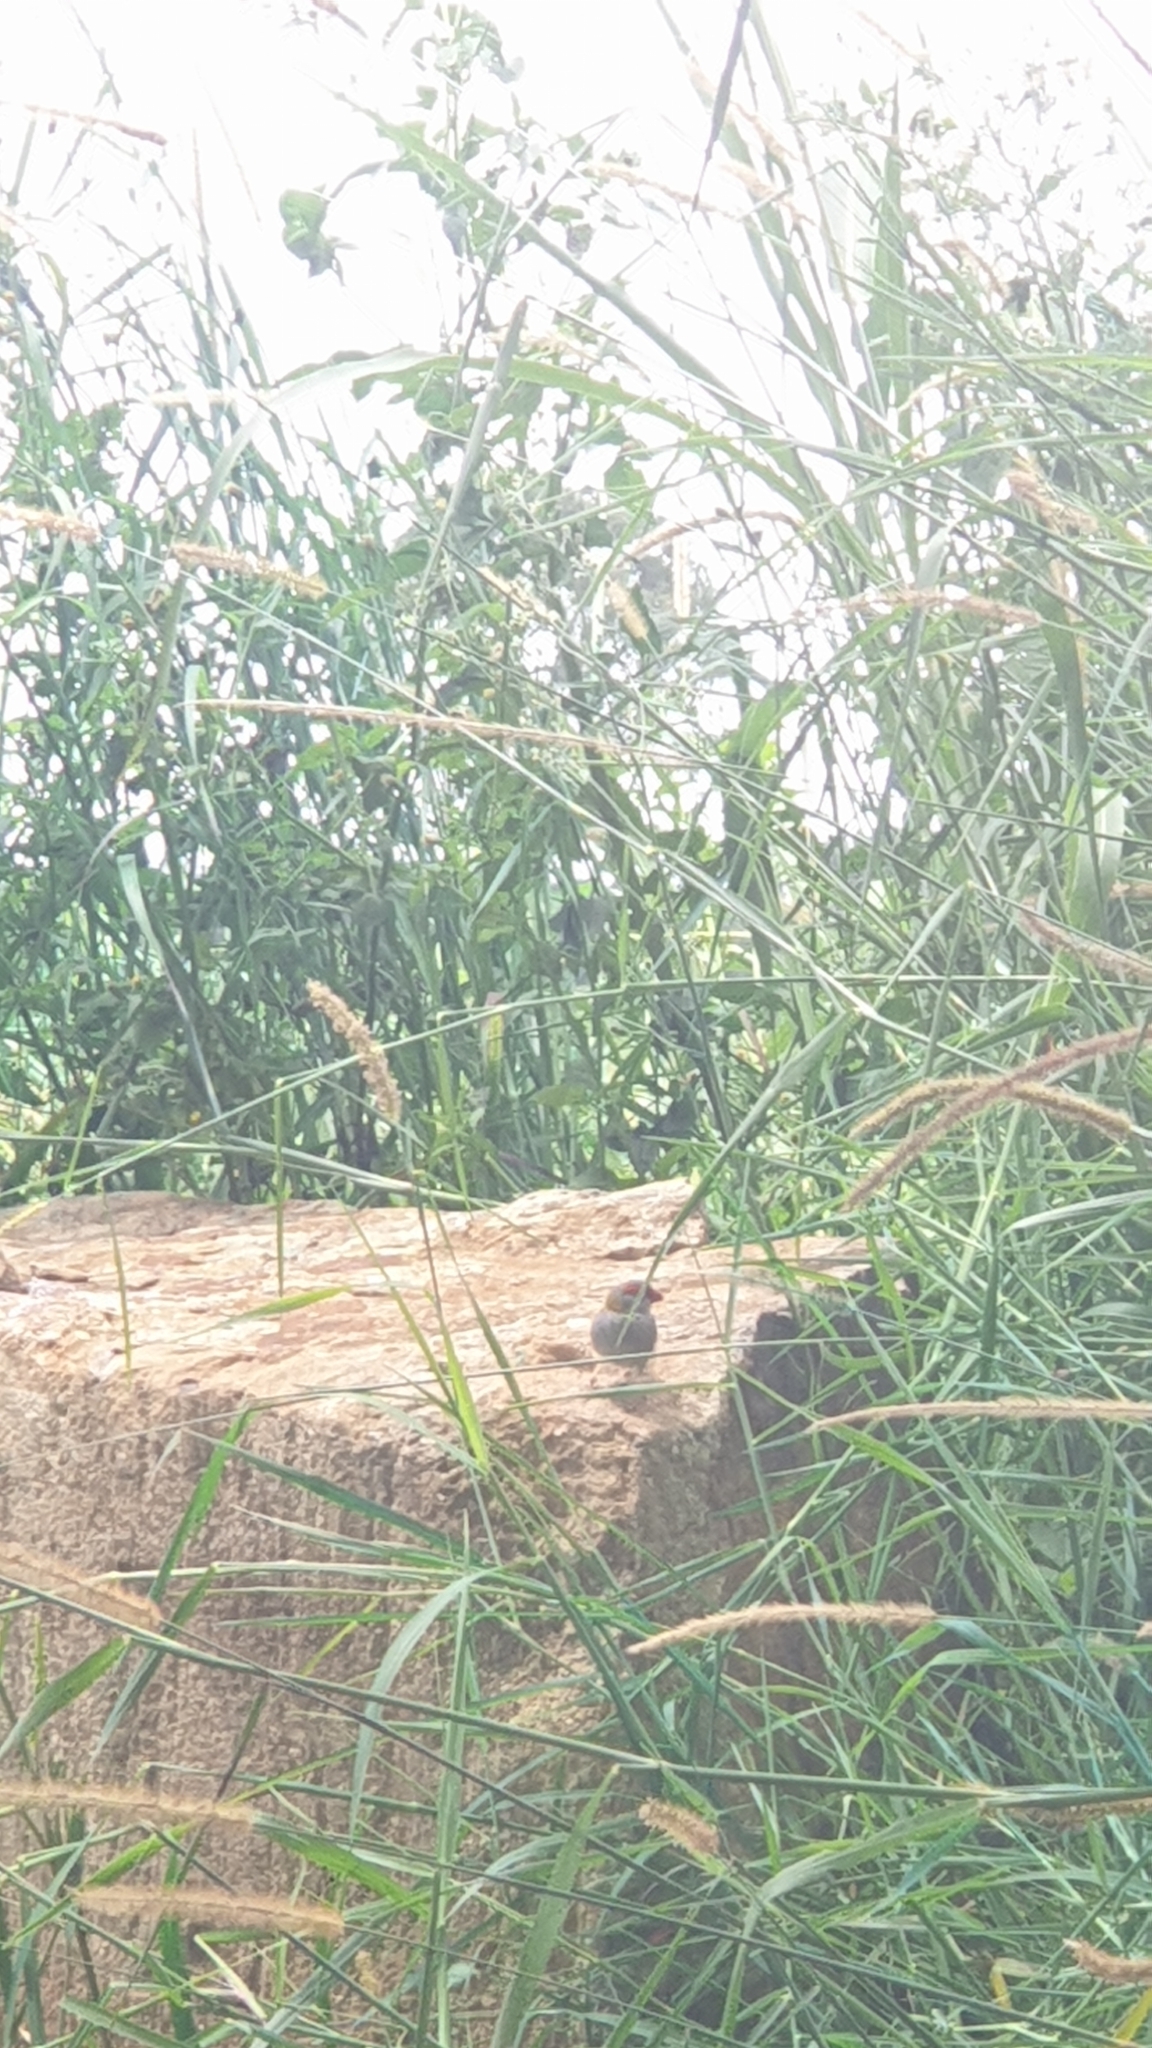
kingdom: Animalia
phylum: Chordata
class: Aves
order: Passeriformes
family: Estrildidae
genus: Neochmia
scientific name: Neochmia temporalis
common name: Red-browed finch
